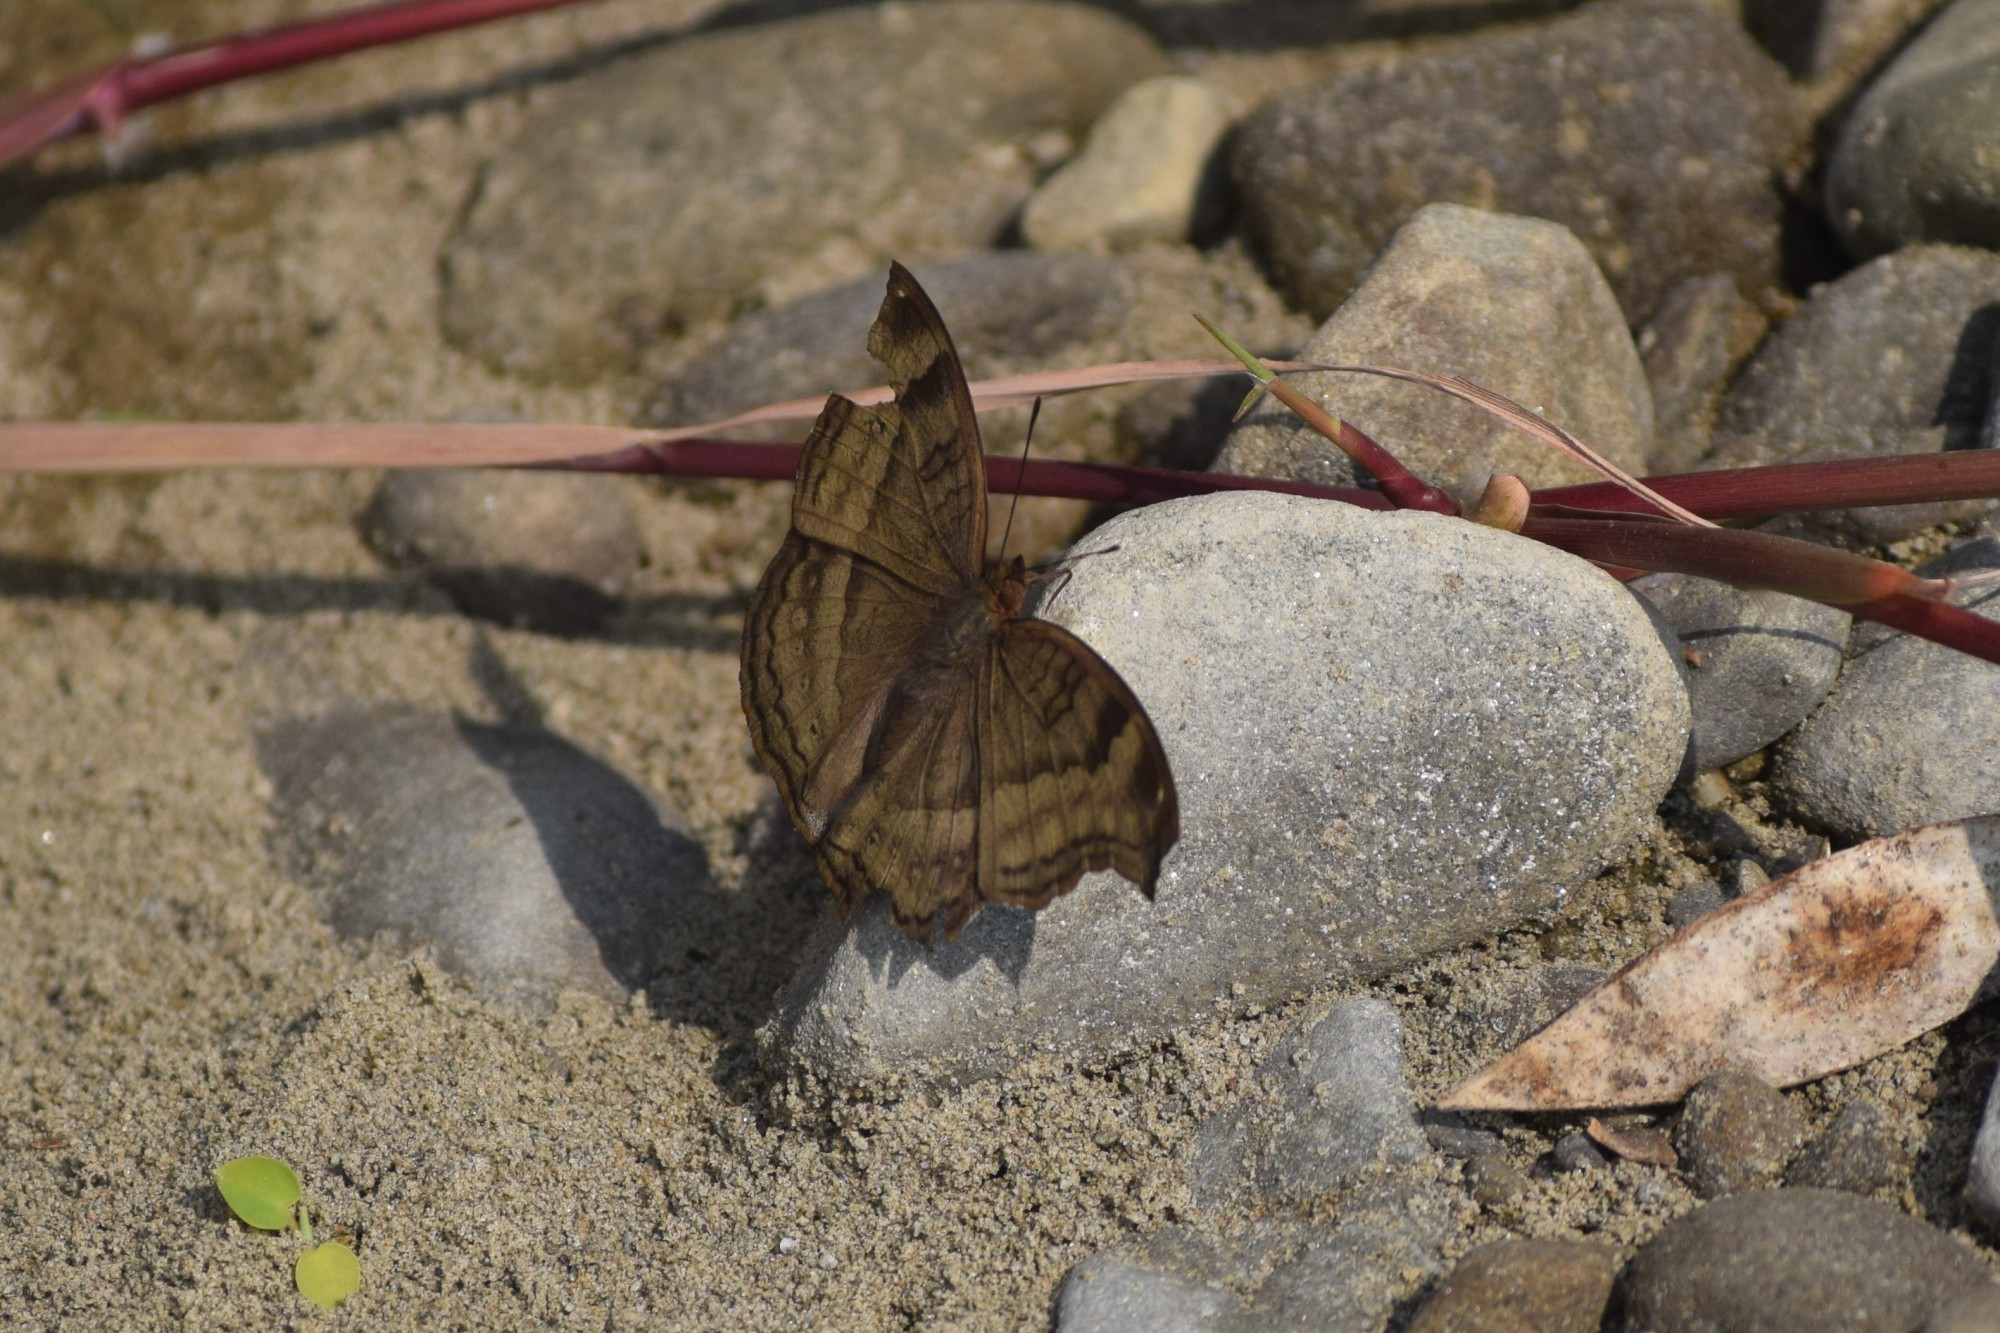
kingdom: Animalia
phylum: Arthropoda
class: Insecta
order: Lepidoptera
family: Nymphalidae
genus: Junonia
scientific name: Junonia iphita
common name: Chocolate pansy
